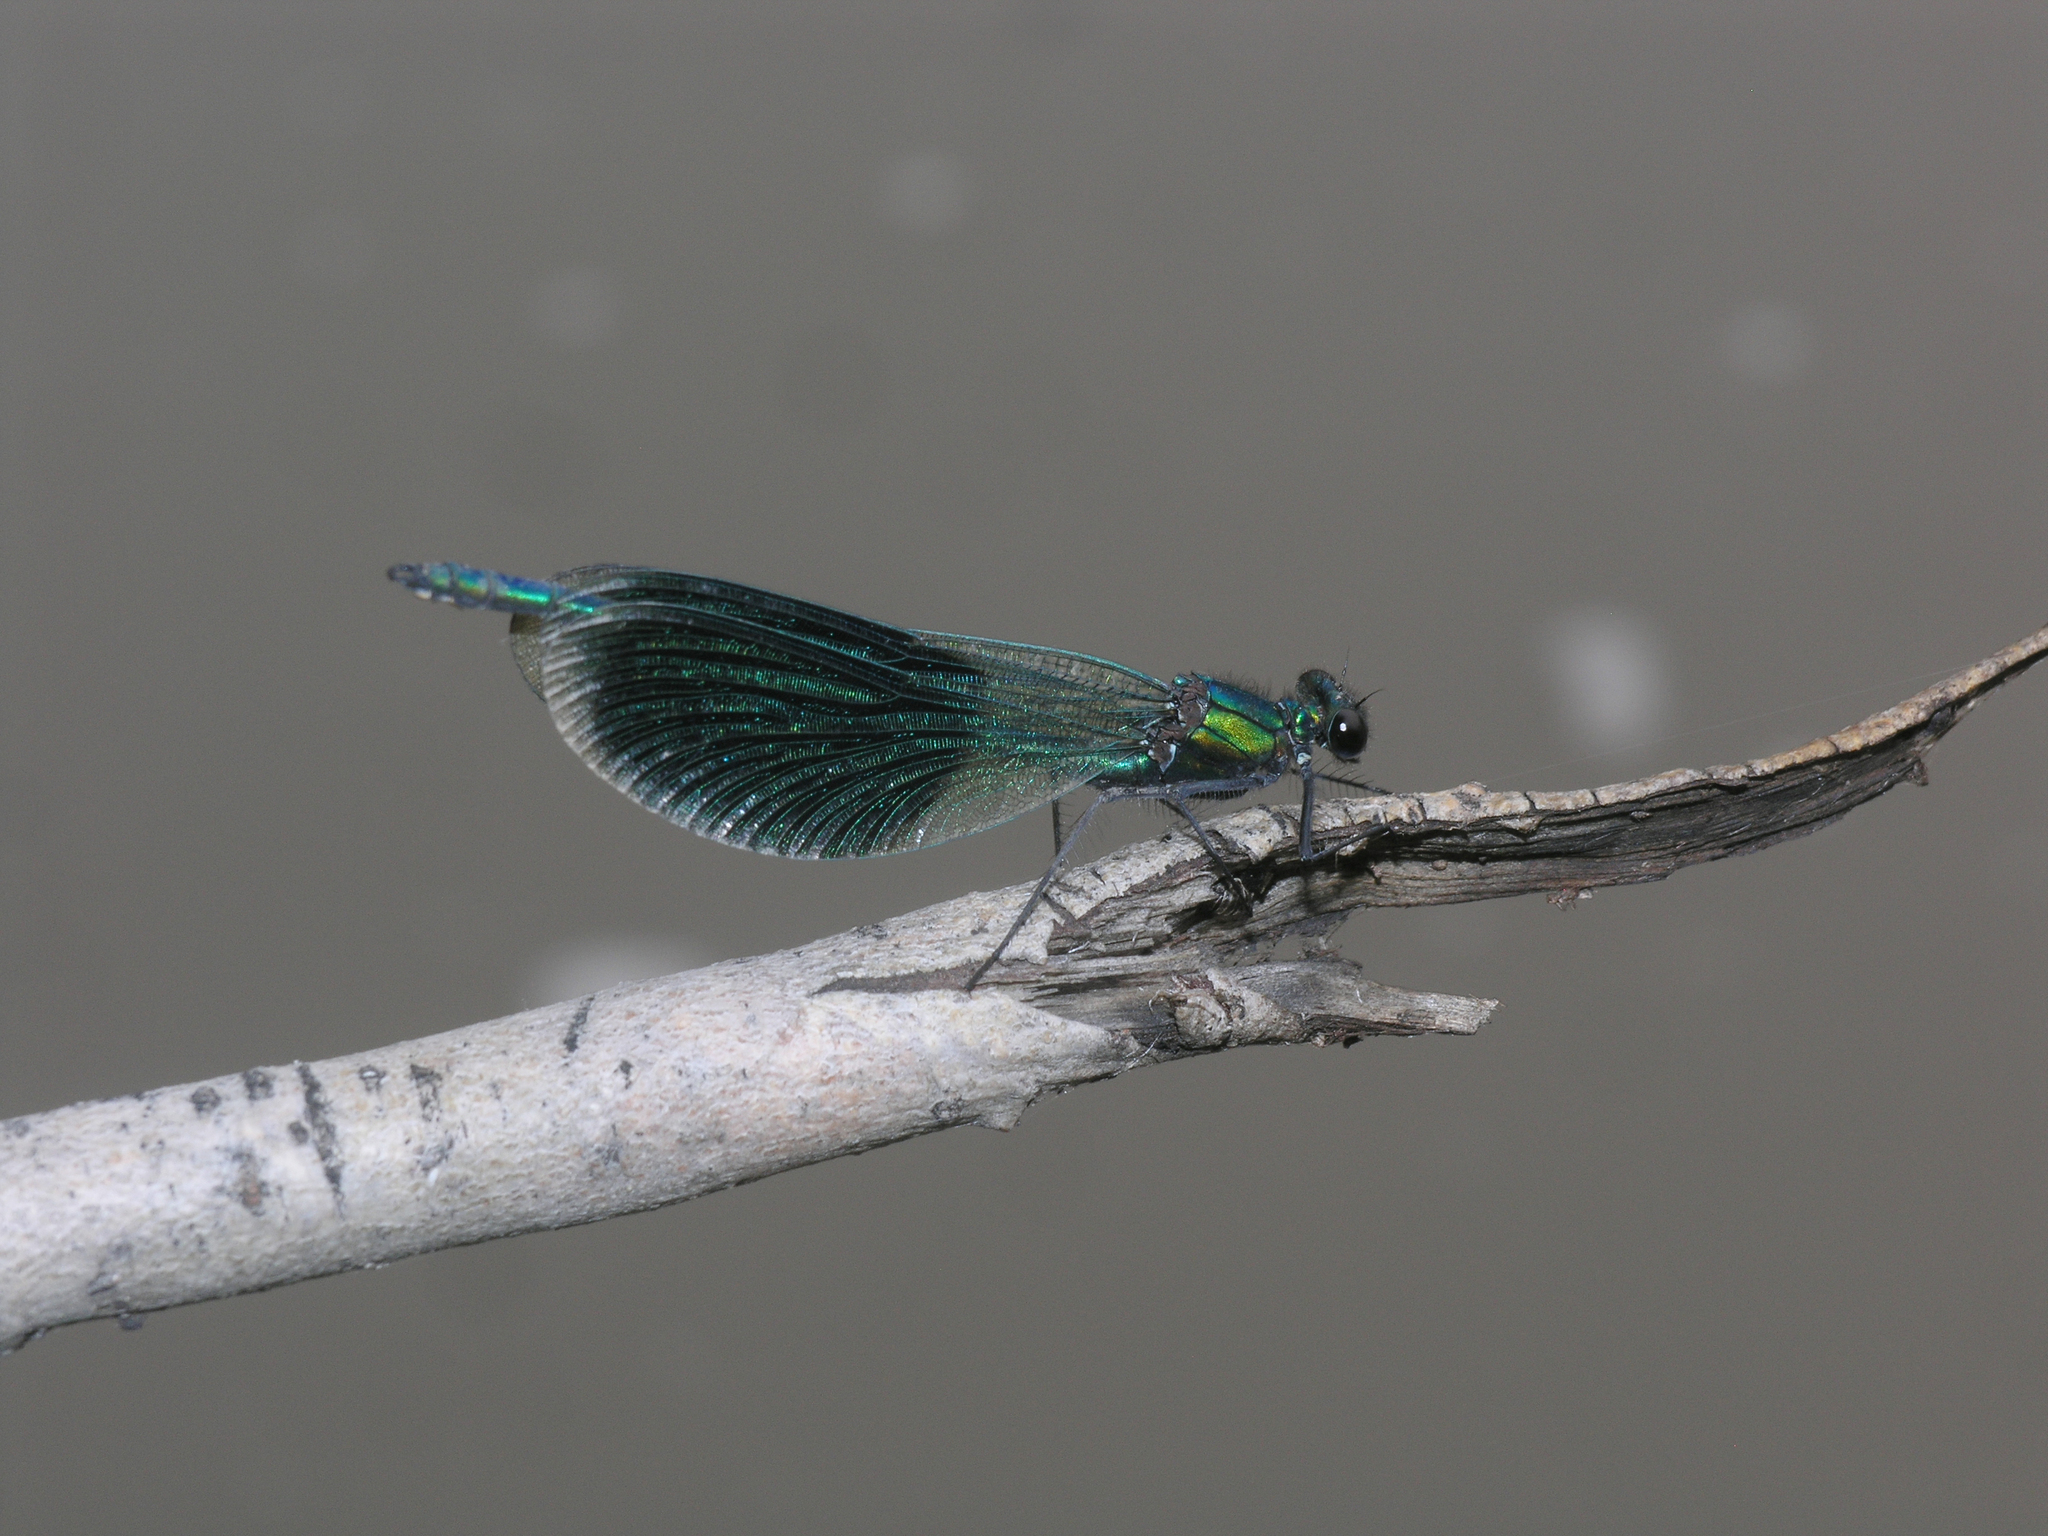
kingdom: Animalia
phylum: Arthropoda
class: Insecta
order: Odonata
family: Calopterygidae
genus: Calopteryx
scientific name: Calopteryx splendens
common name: Banded demoiselle
